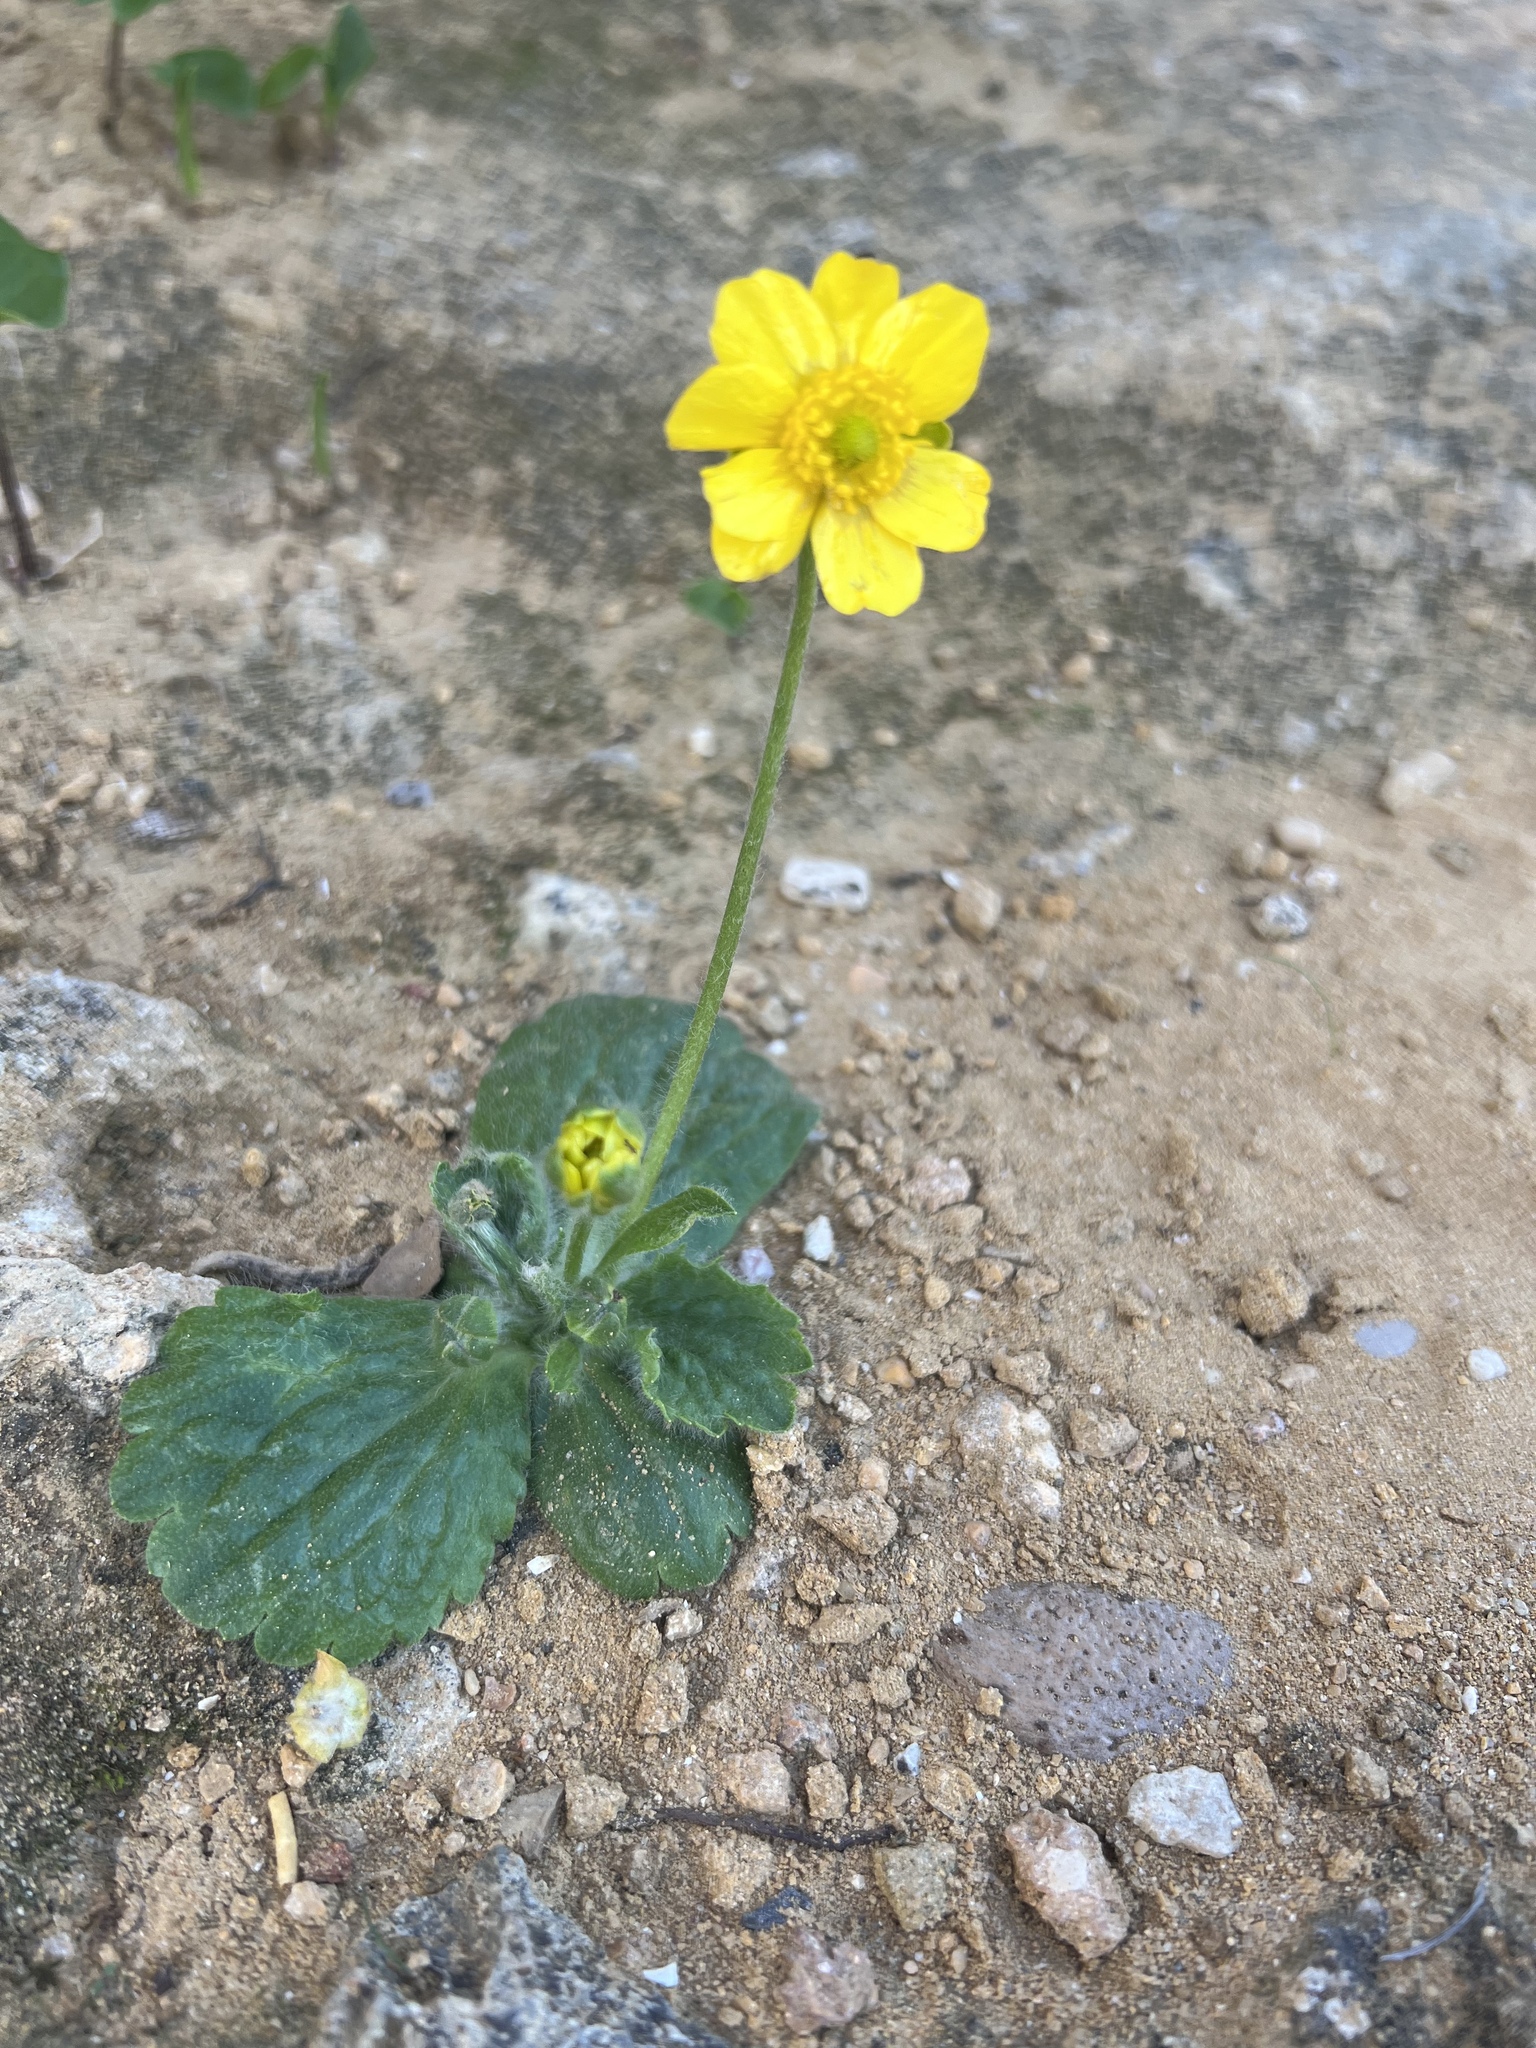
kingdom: Plantae
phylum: Tracheophyta
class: Magnoliopsida
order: Ranunculales
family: Ranunculaceae
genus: Ranunculus
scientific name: Ranunculus bullatus
